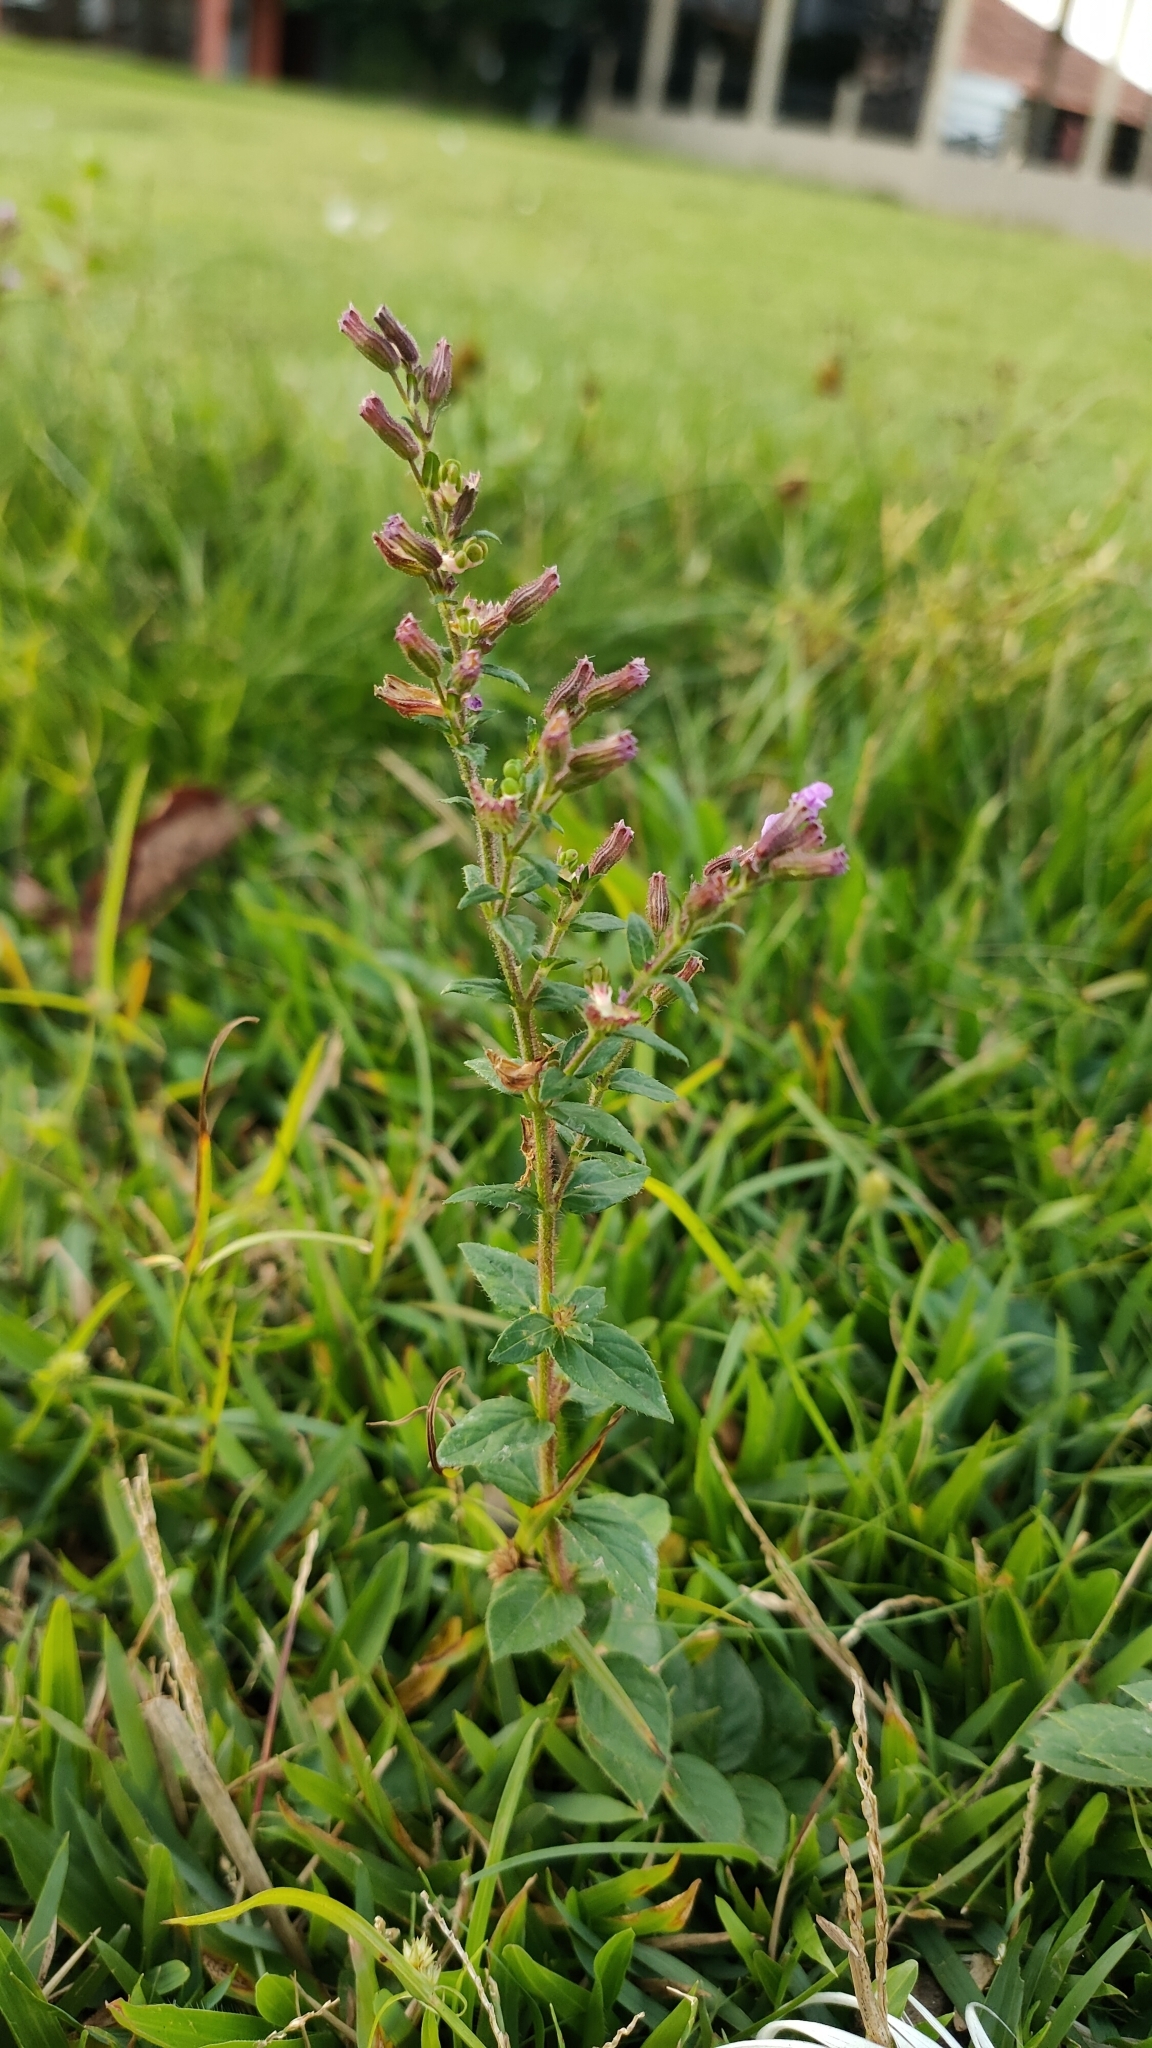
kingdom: Plantae
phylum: Tracheophyta
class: Magnoliopsida
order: Myrtales
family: Lythraceae
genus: Cuphea
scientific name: Cuphea calophylla
